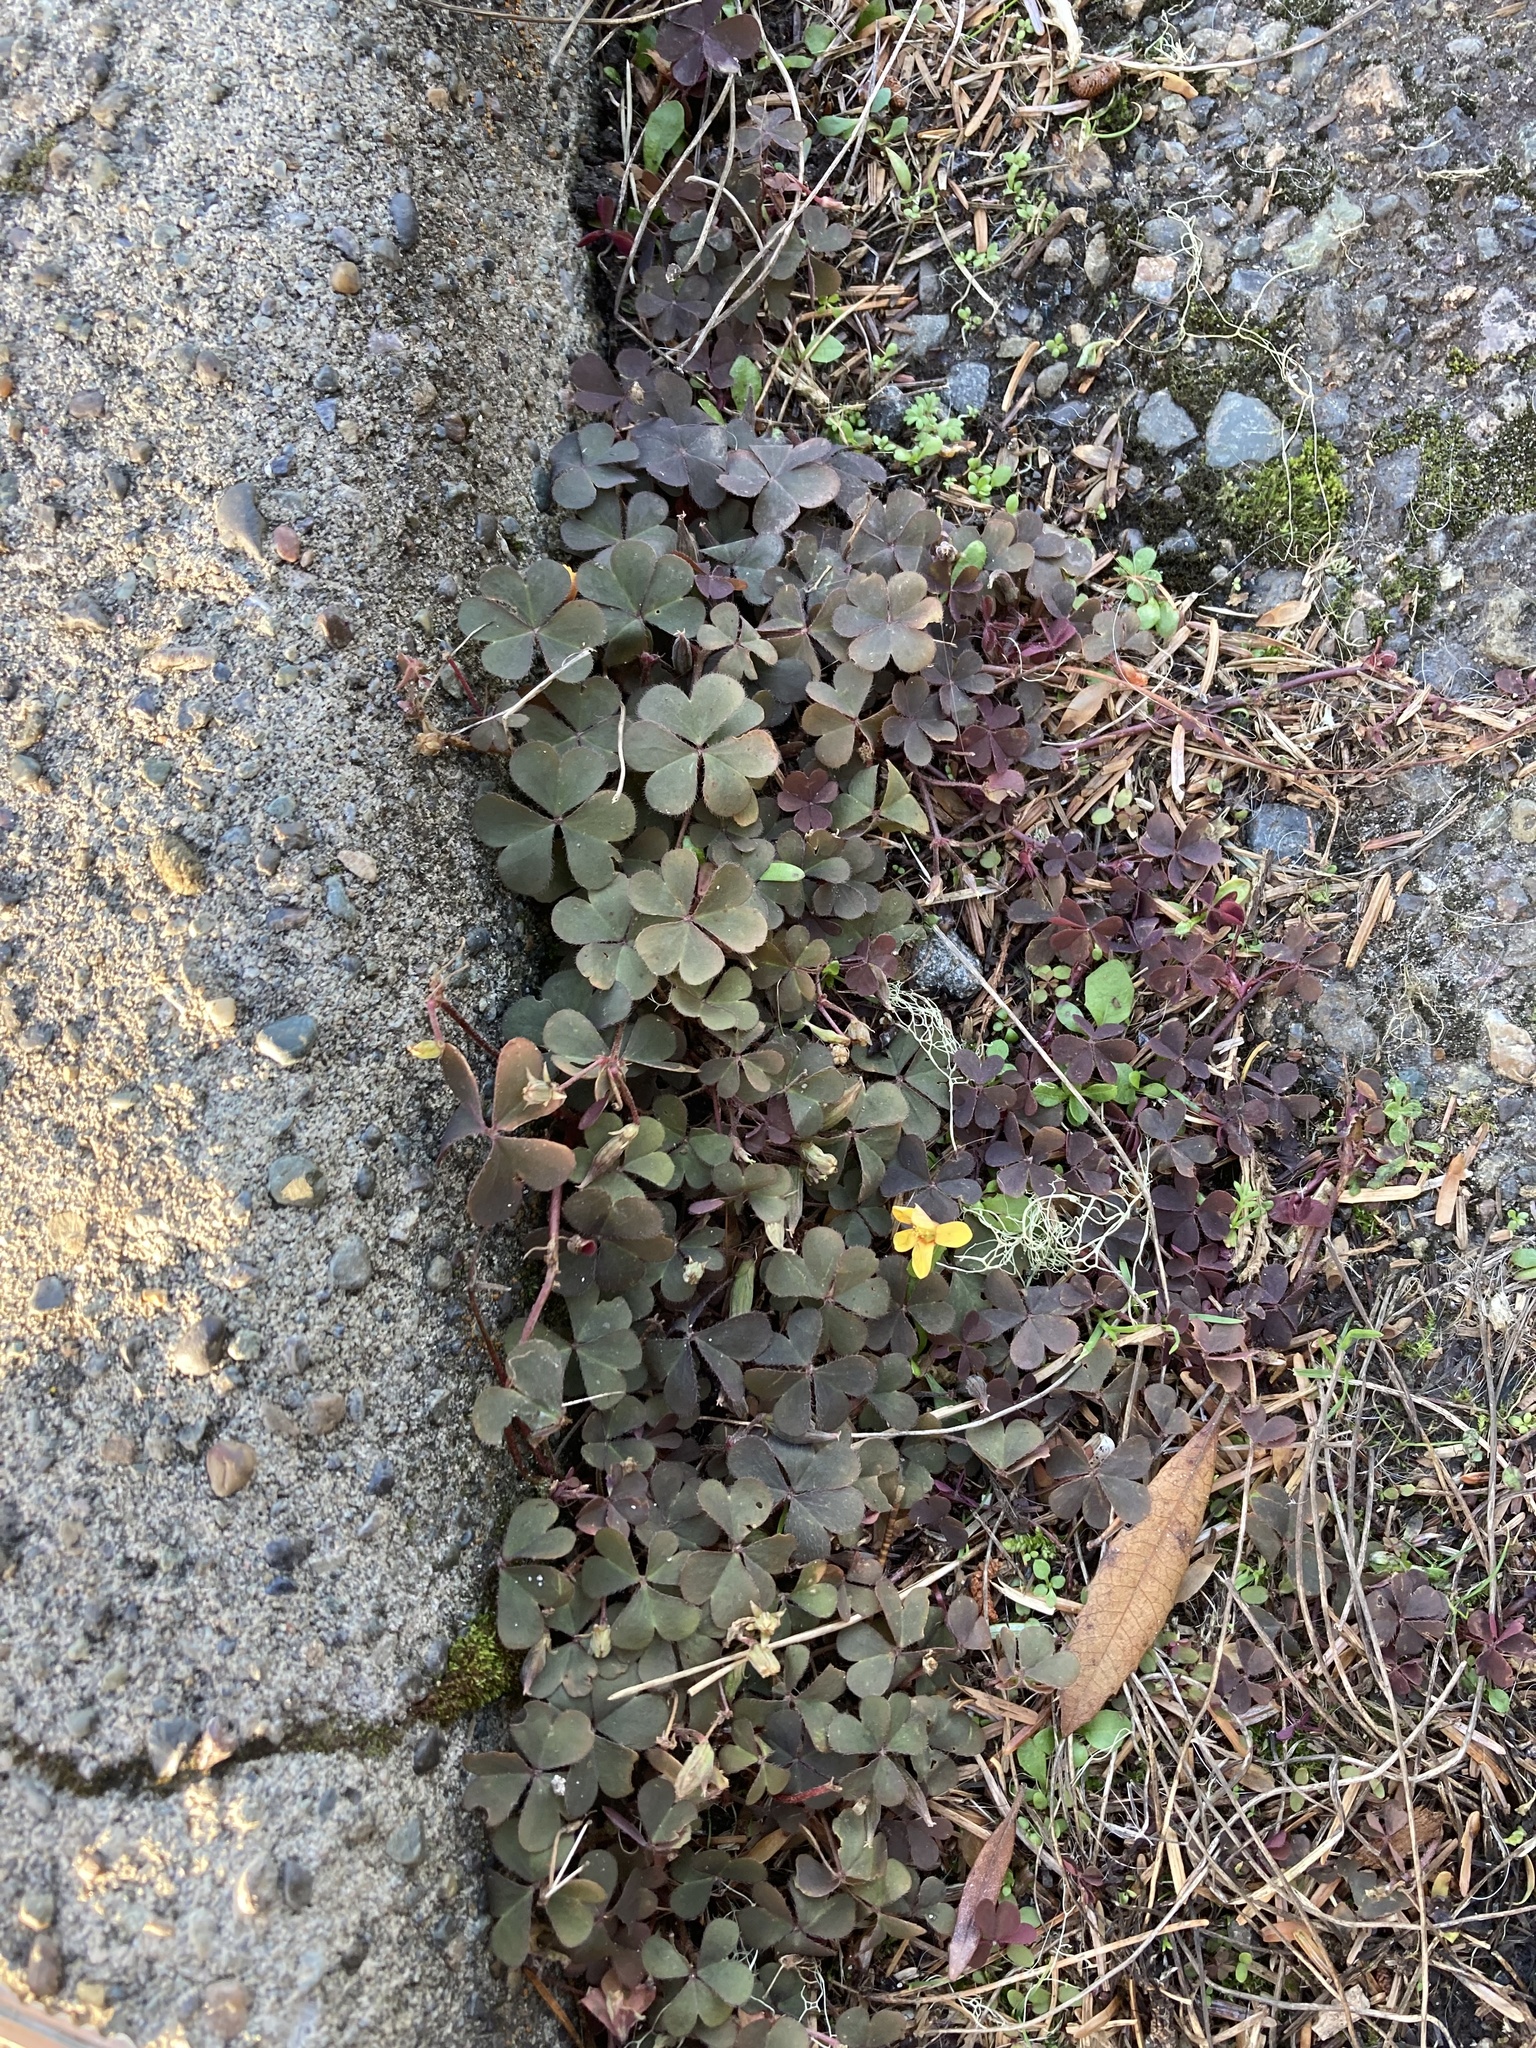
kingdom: Plantae
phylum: Tracheophyta
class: Magnoliopsida
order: Oxalidales
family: Oxalidaceae
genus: Oxalis
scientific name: Oxalis corniculata
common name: Procumbent yellow-sorrel
